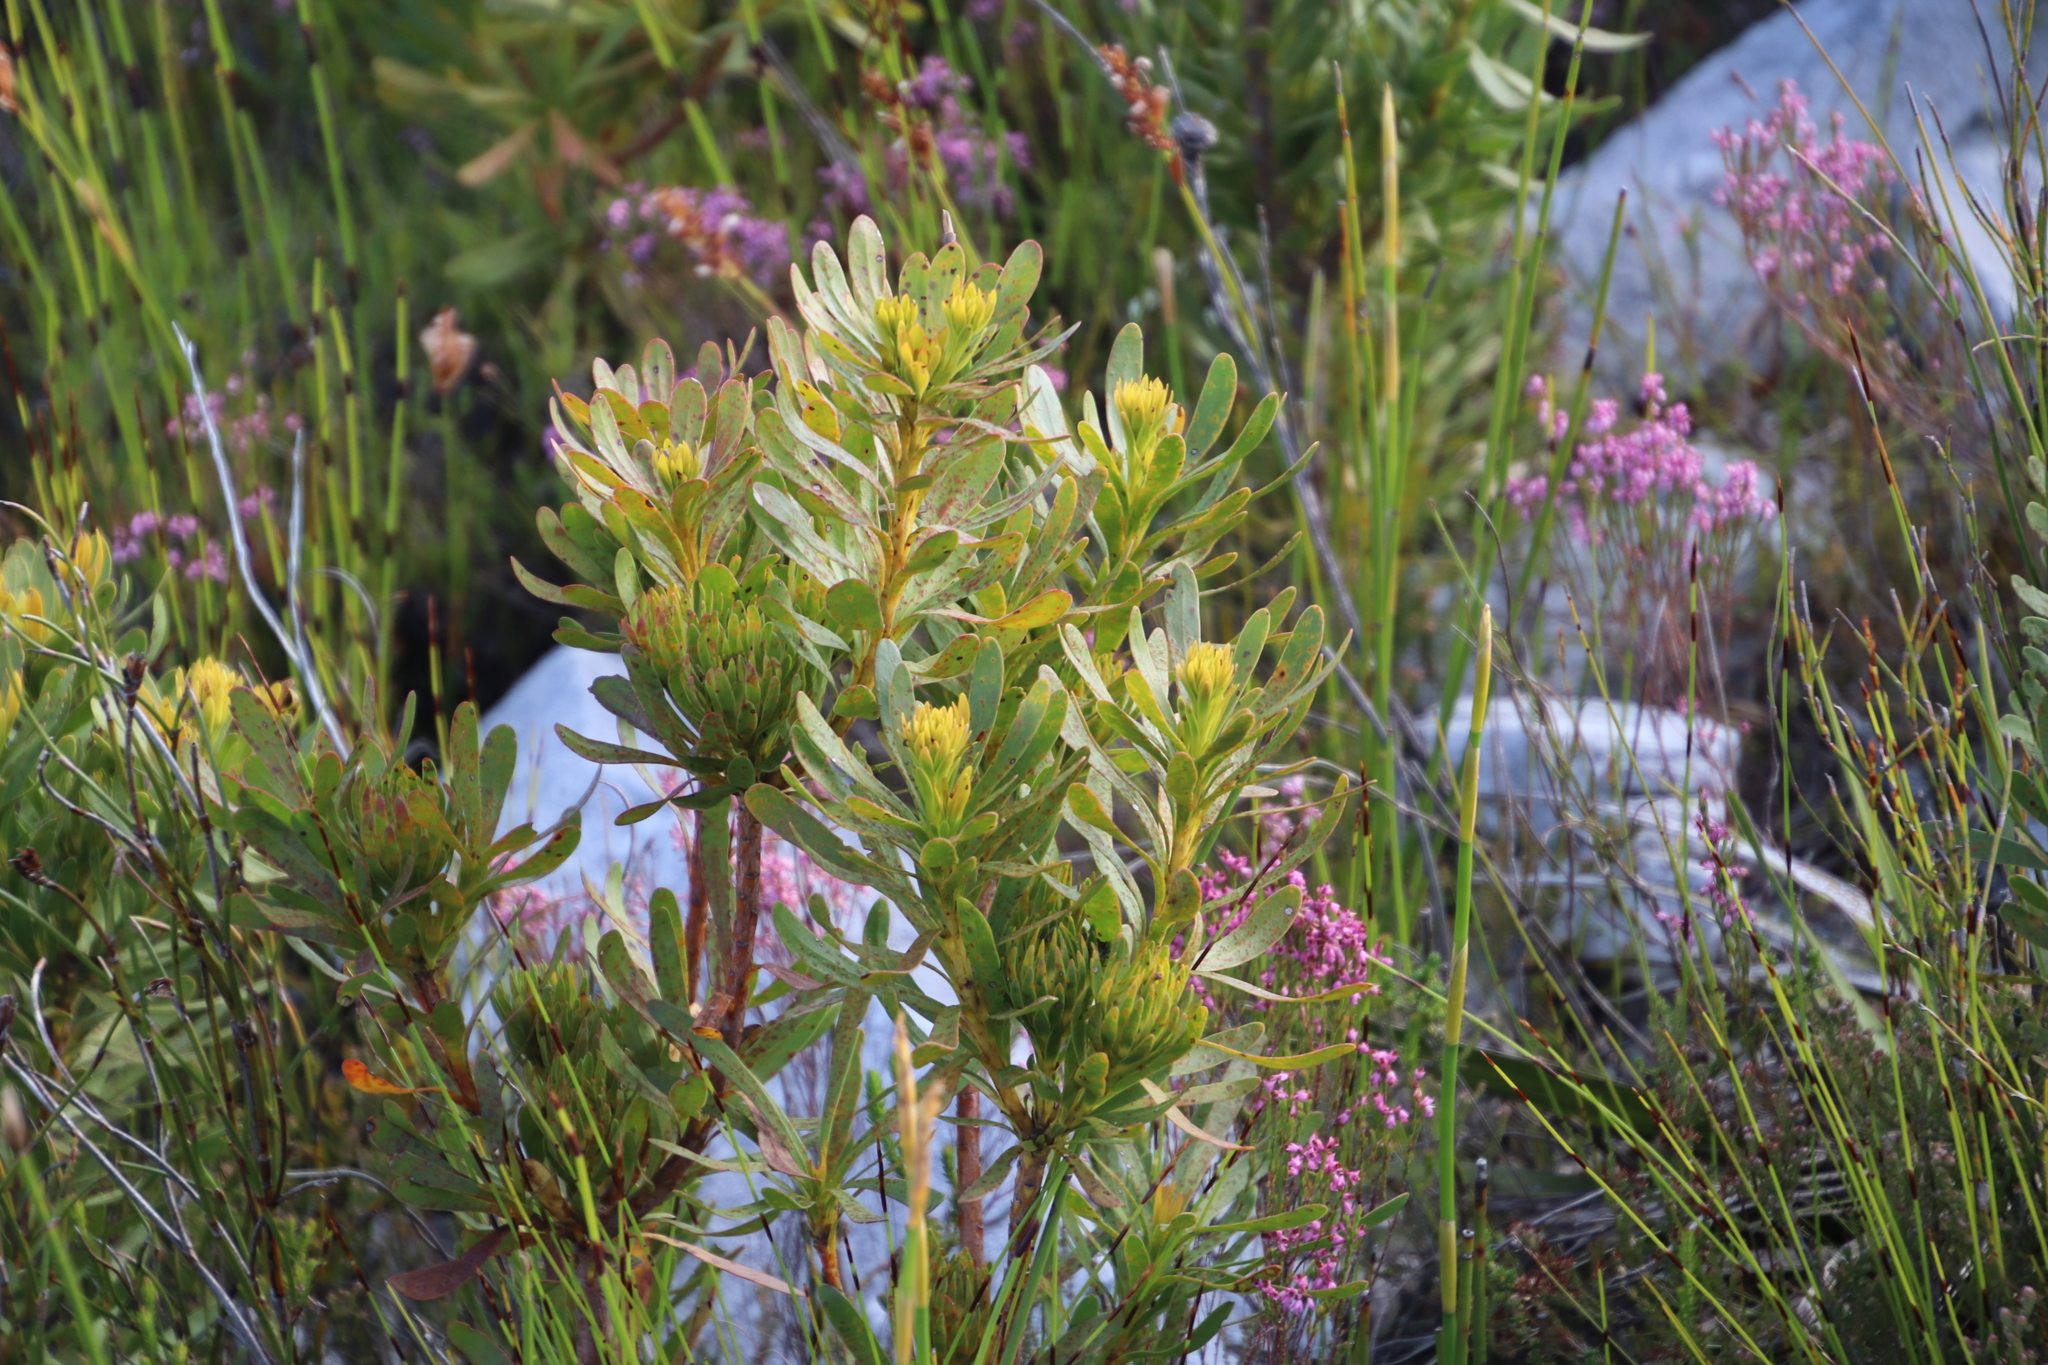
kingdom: Plantae
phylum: Tracheophyta
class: Magnoliopsida
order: Proteales
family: Proteaceae
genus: Leucadendron
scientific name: Leucadendron xanthoconus
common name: Sickle-leaf conebush
